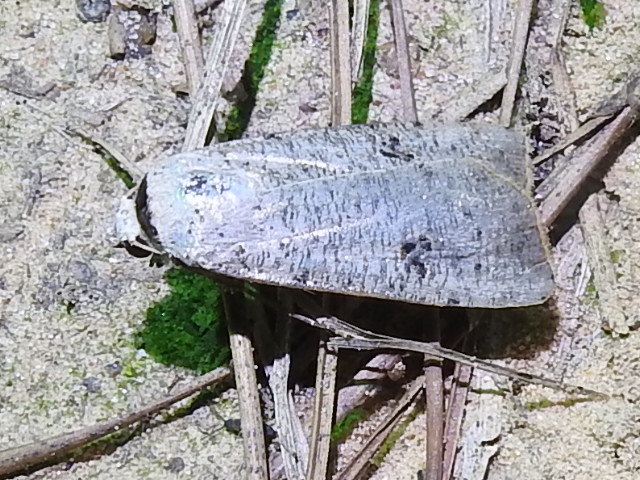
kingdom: Animalia
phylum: Arthropoda
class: Insecta
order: Lepidoptera
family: Noctuidae
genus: Anicla
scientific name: Anicla infecta
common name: Green cutworm
